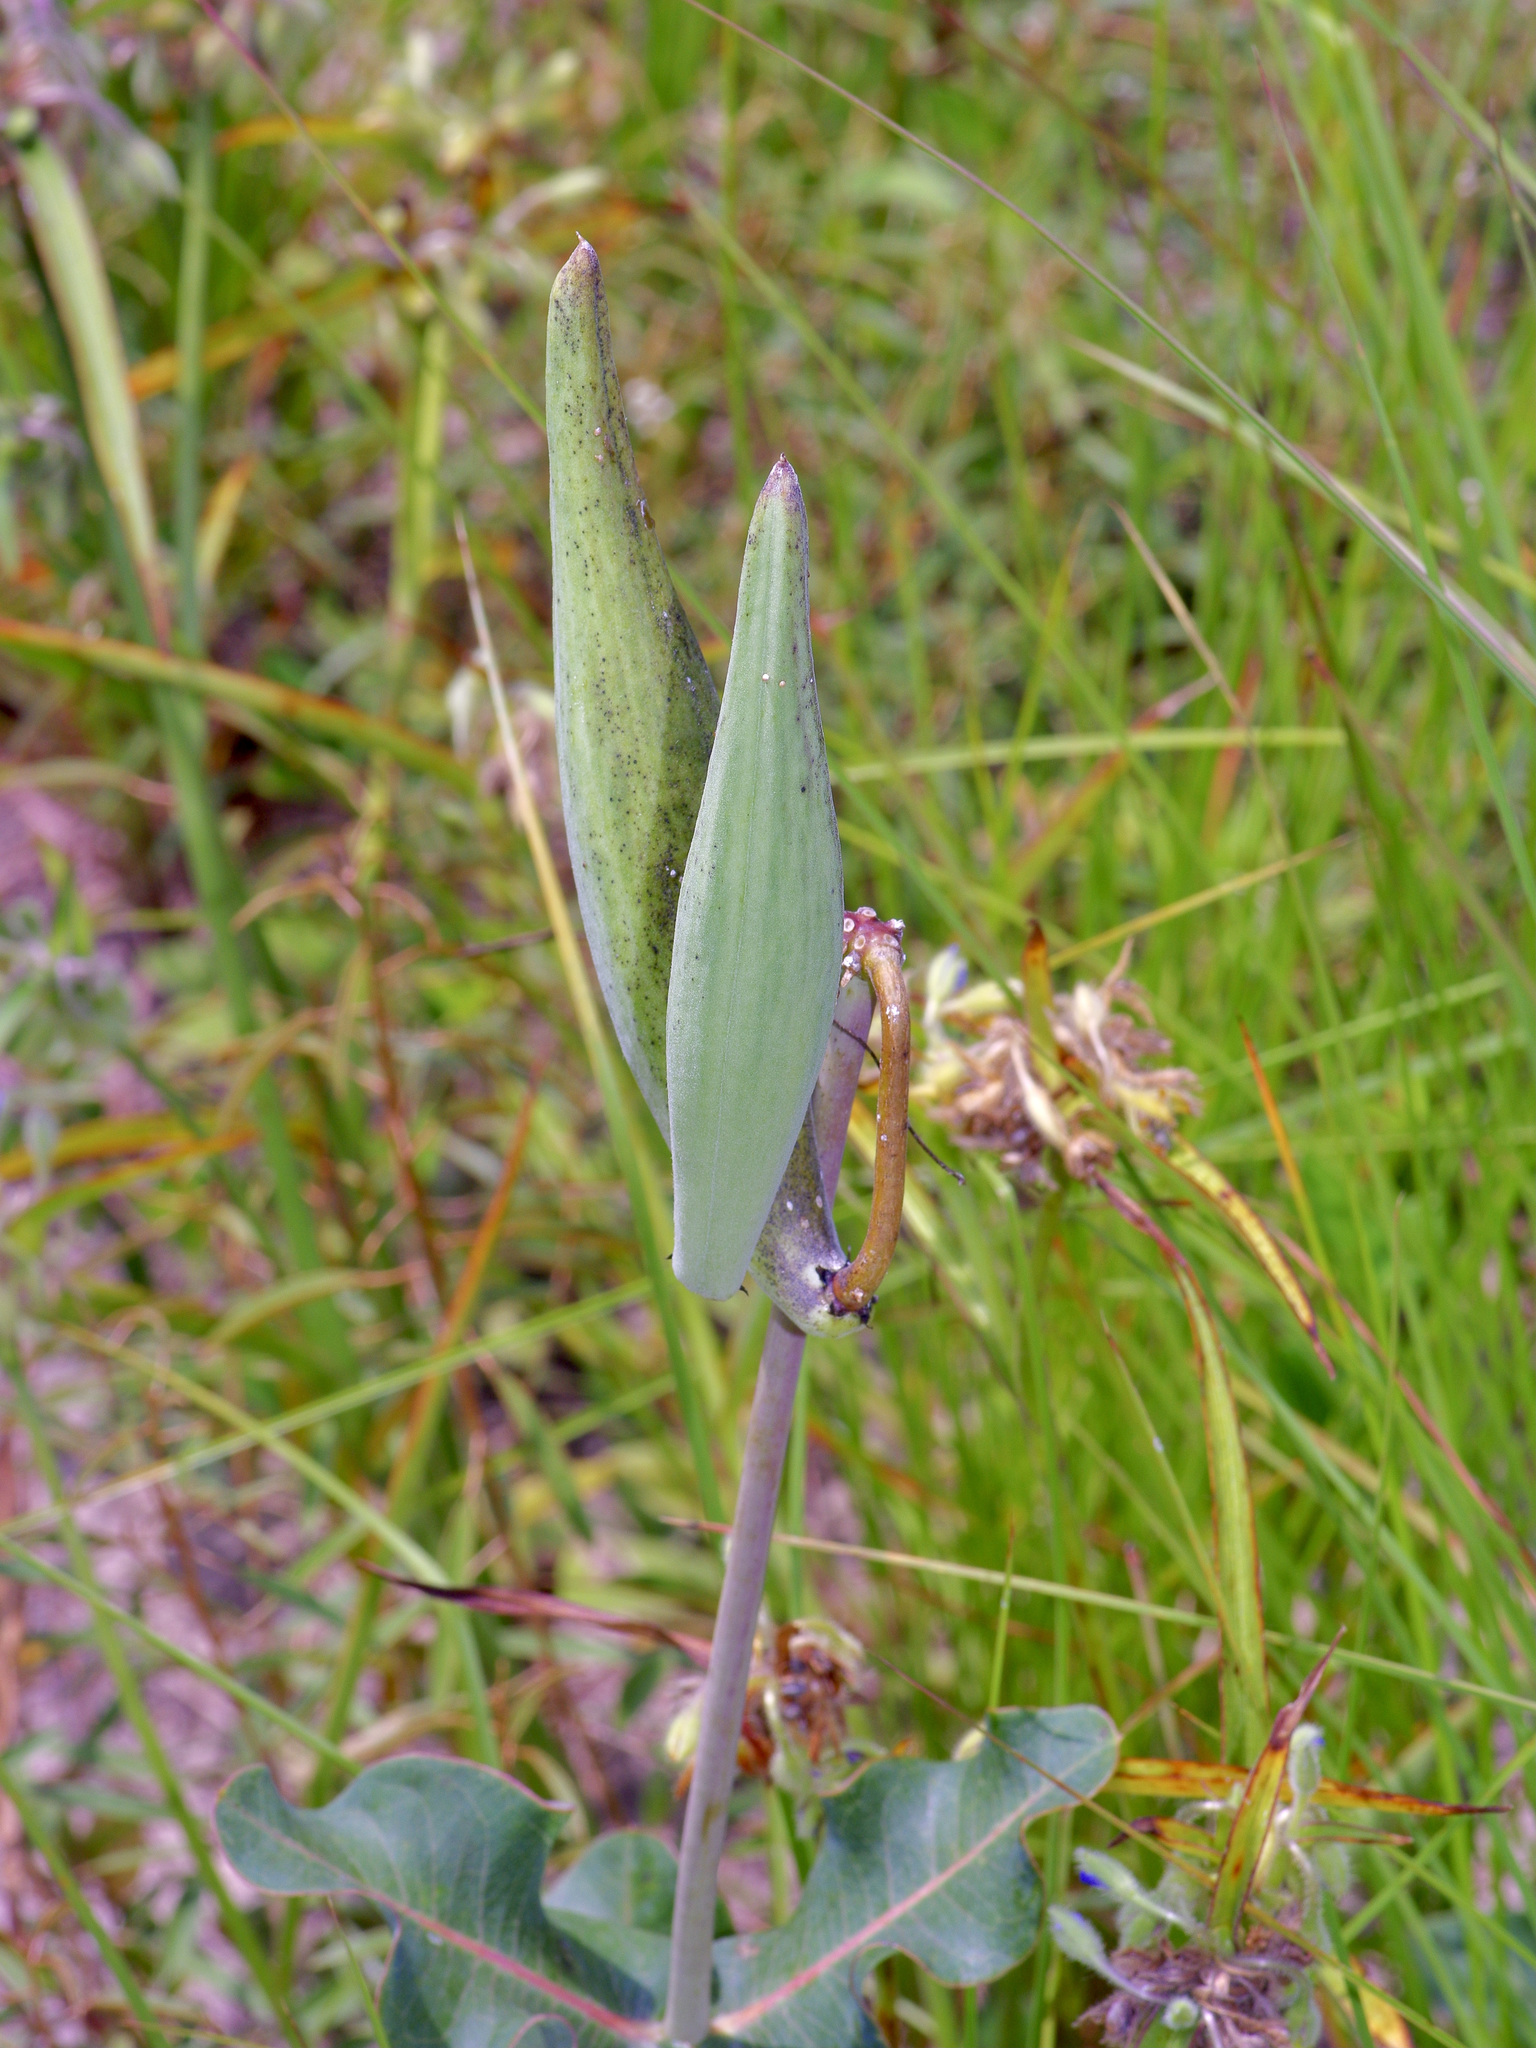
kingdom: Plantae
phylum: Tracheophyta
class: Magnoliopsida
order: Gentianales
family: Apocynaceae
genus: Asclepias
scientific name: Asclepias amplexicaulis
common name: Blunt-leaf milkweed
